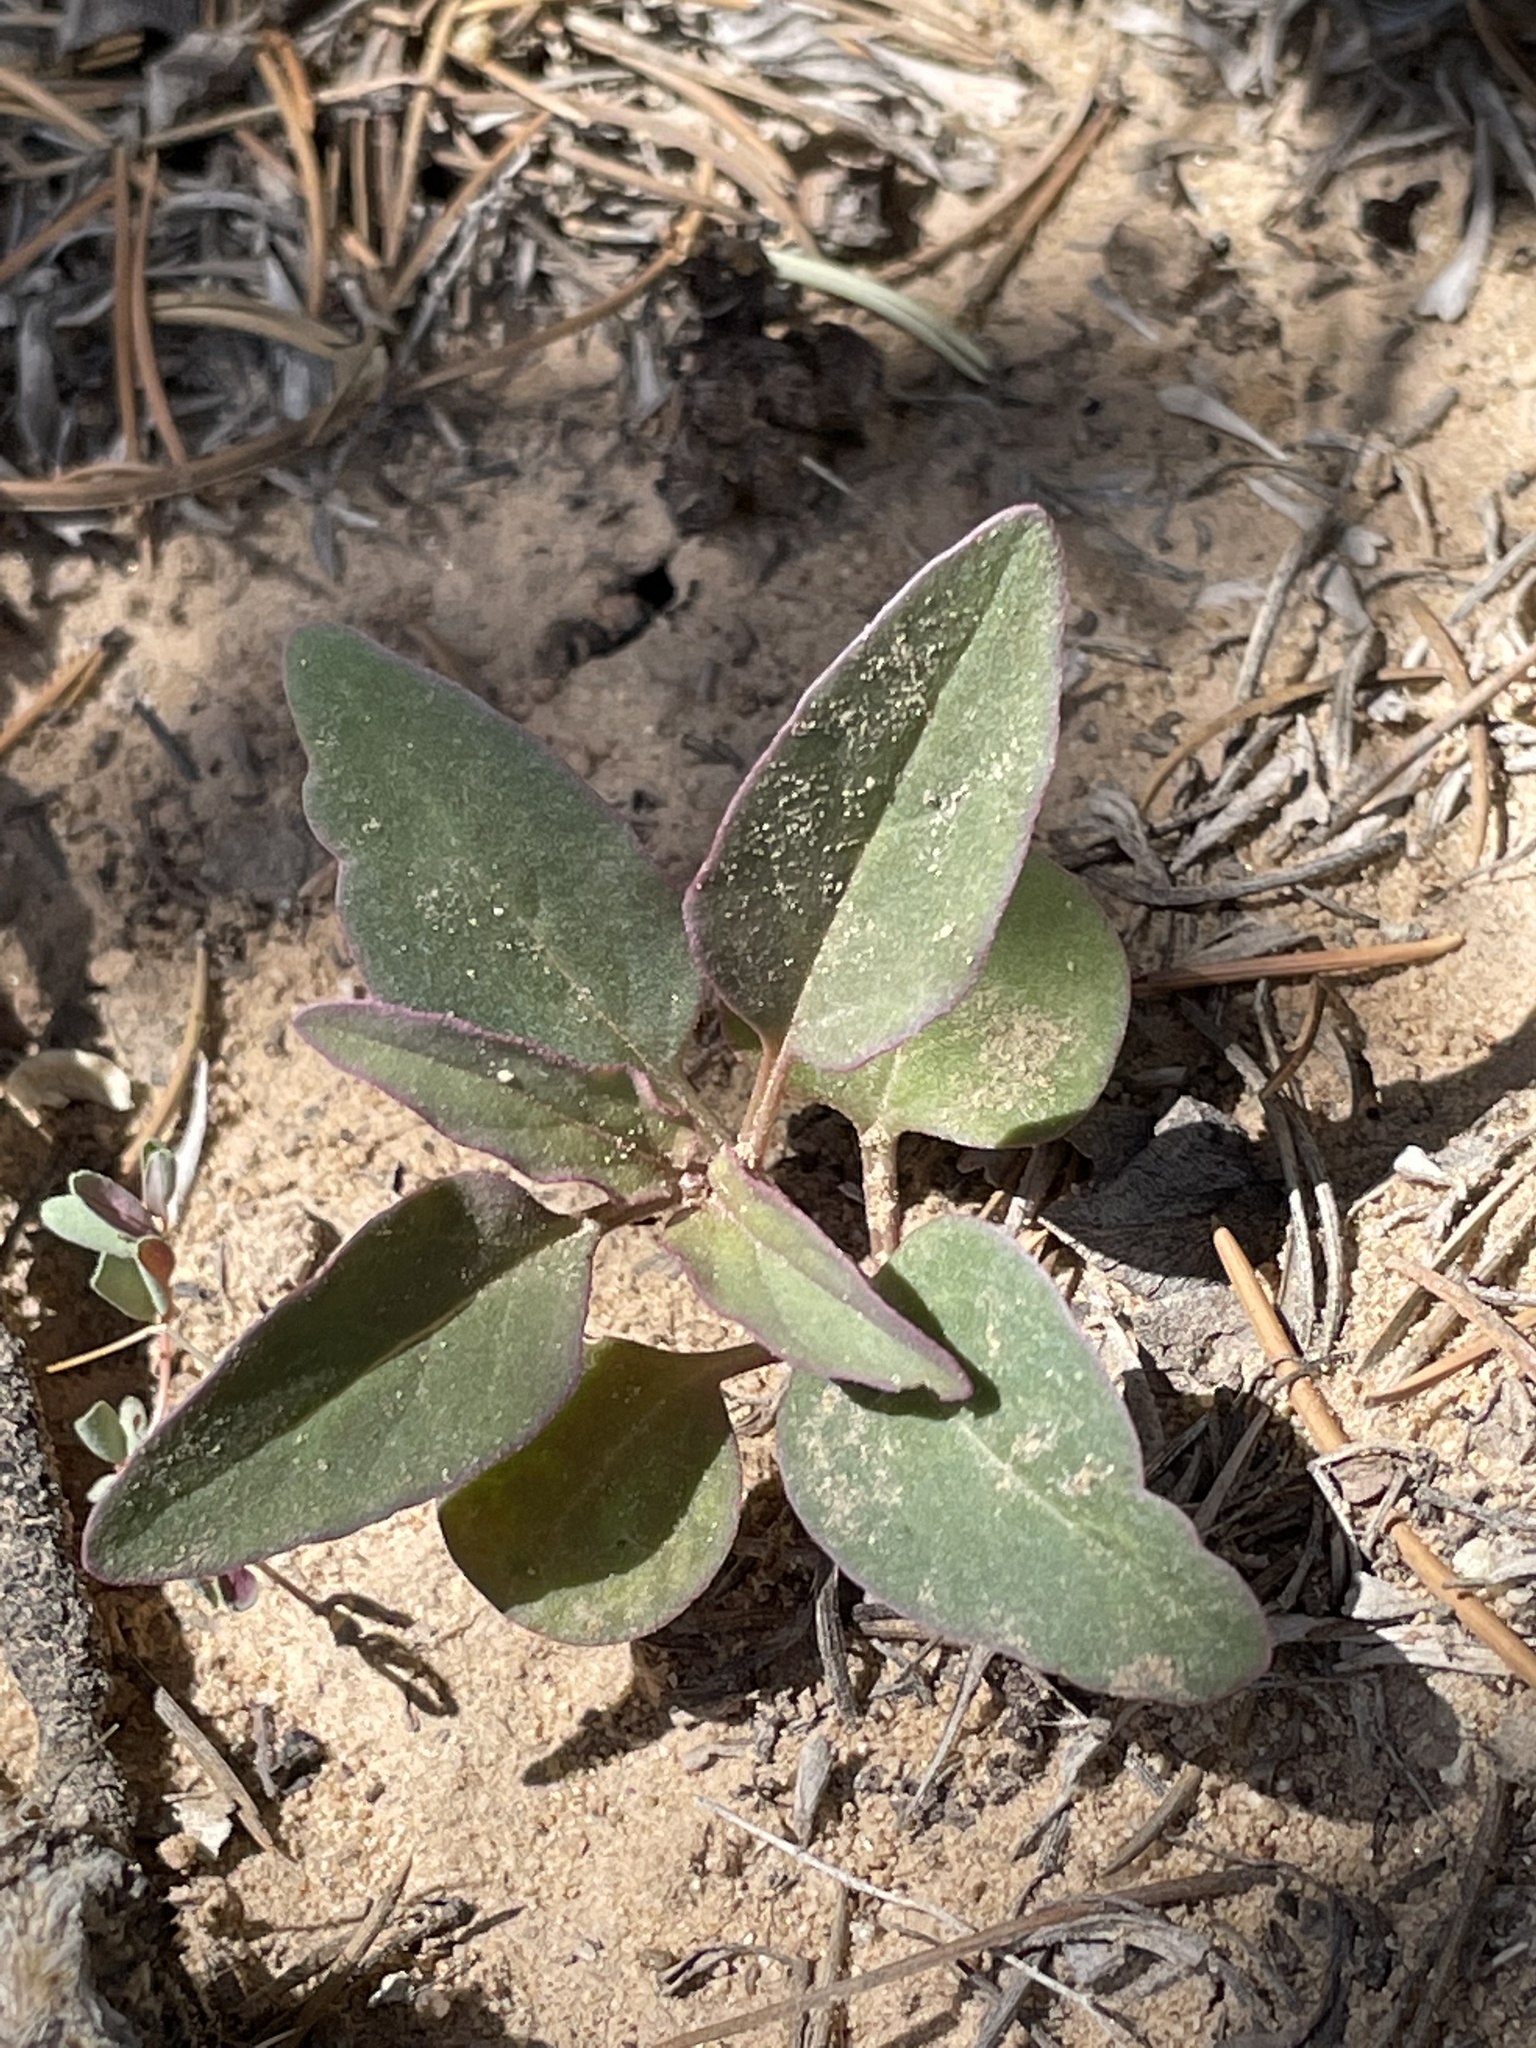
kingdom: Plantae
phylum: Tracheophyta
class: Magnoliopsida
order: Caryophyllales
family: Nyctaginaceae
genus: Mirabilis
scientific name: Mirabilis comata
